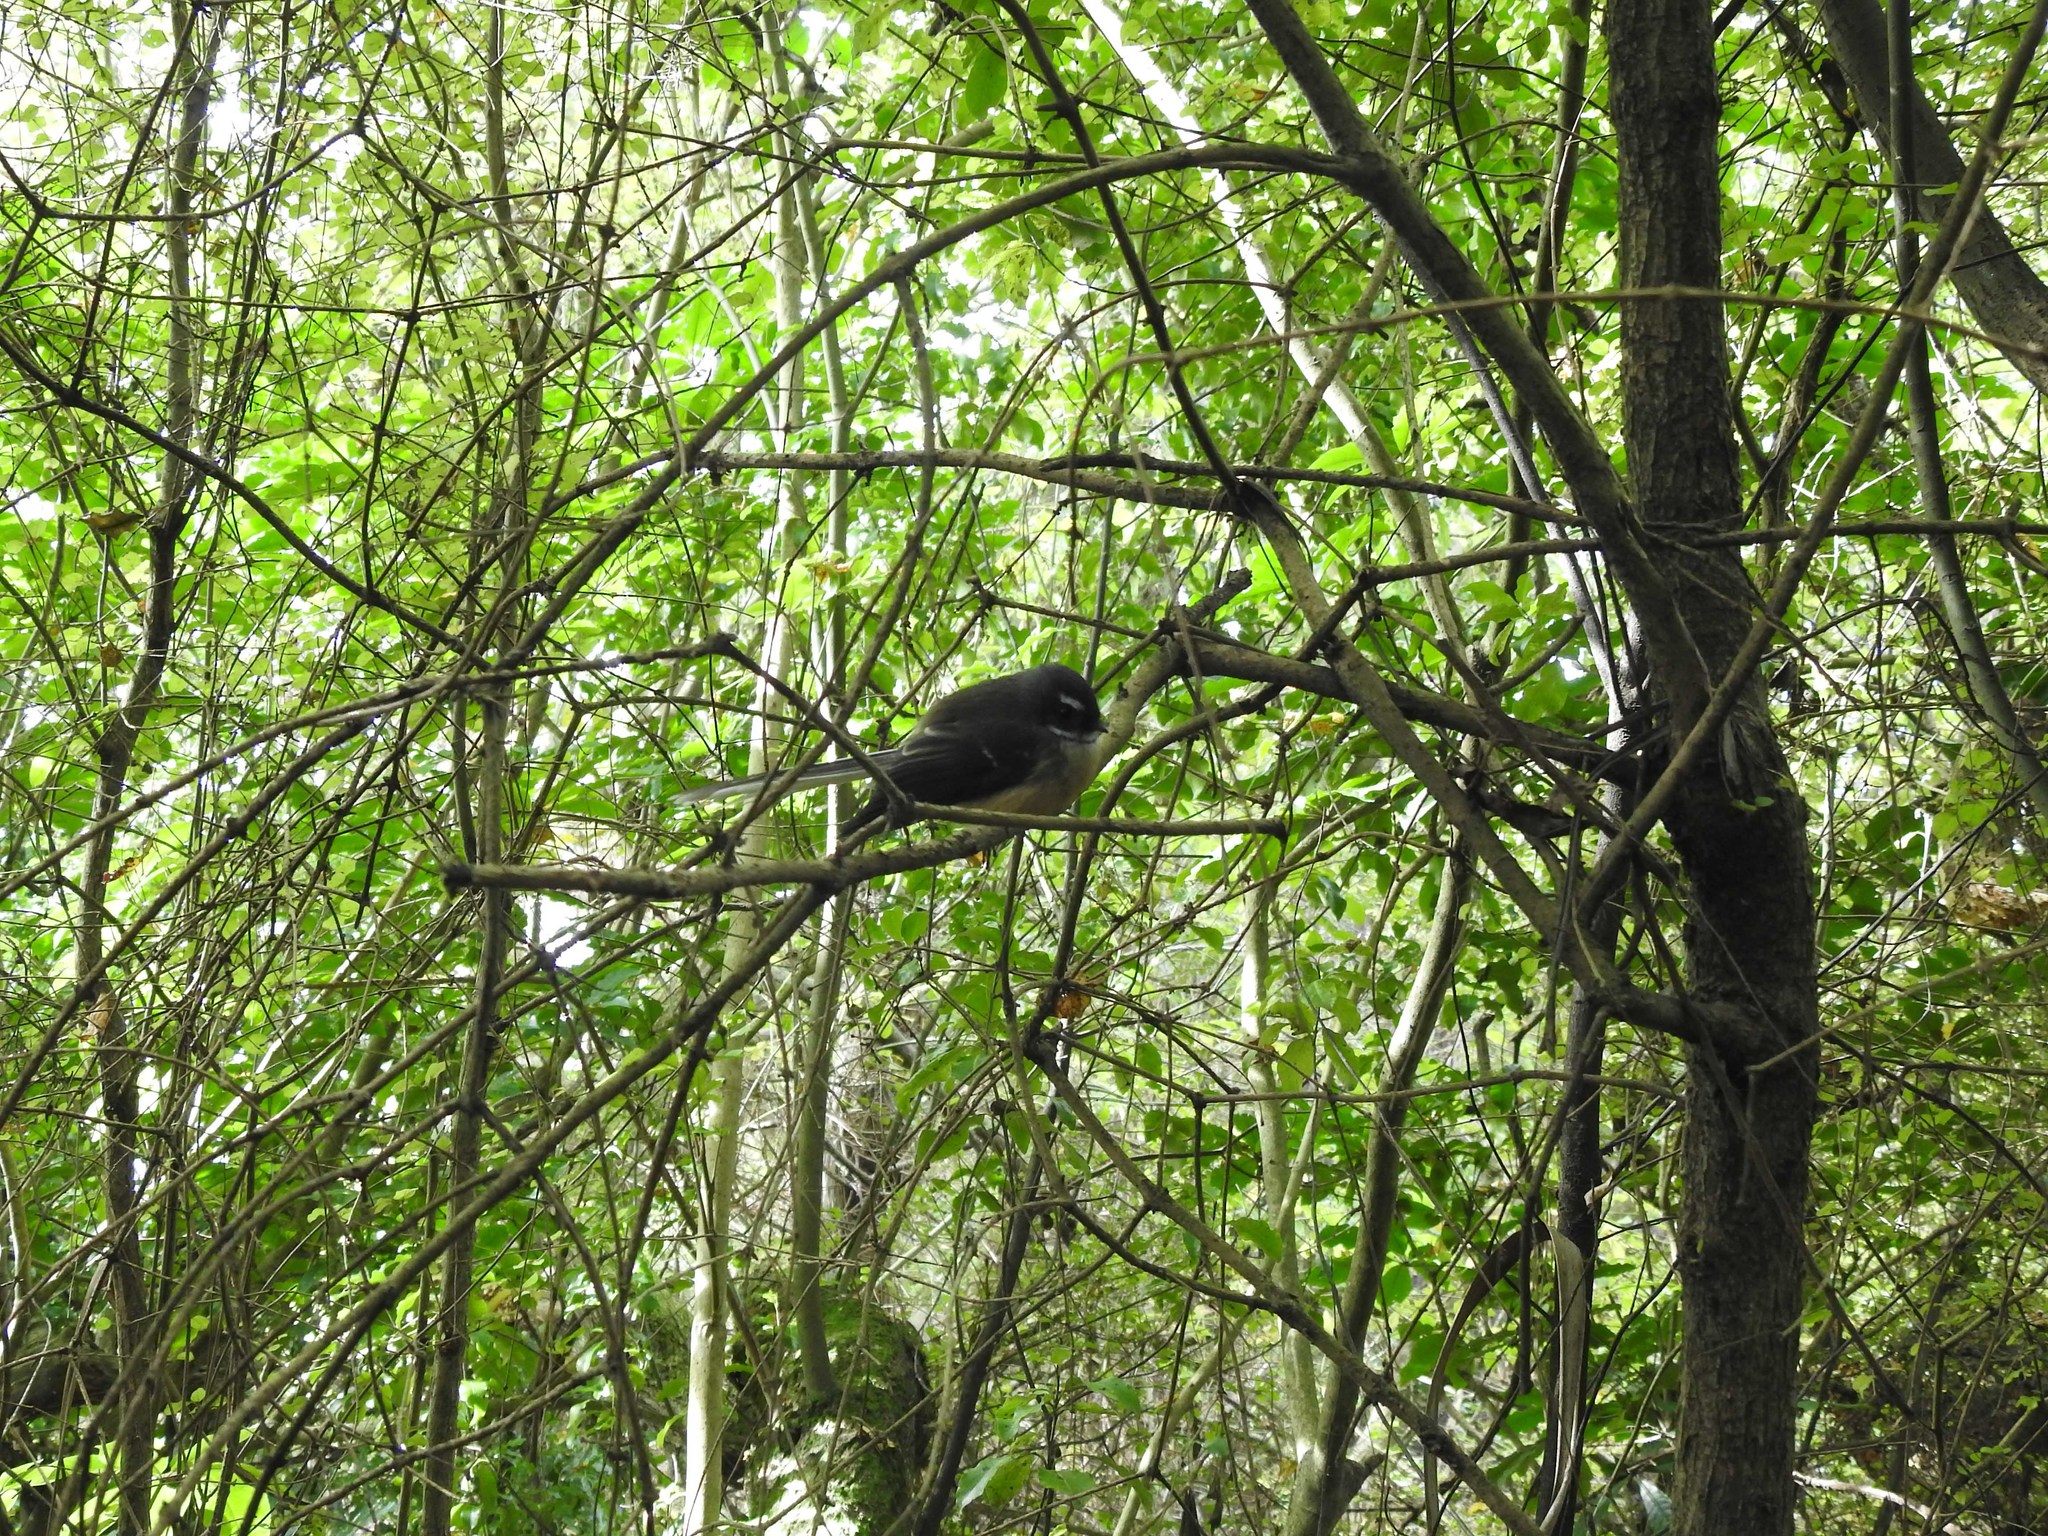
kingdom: Animalia
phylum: Chordata
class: Aves
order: Passeriformes
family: Rhipiduridae
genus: Rhipidura
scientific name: Rhipidura fuliginosa
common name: New zealand fantail
